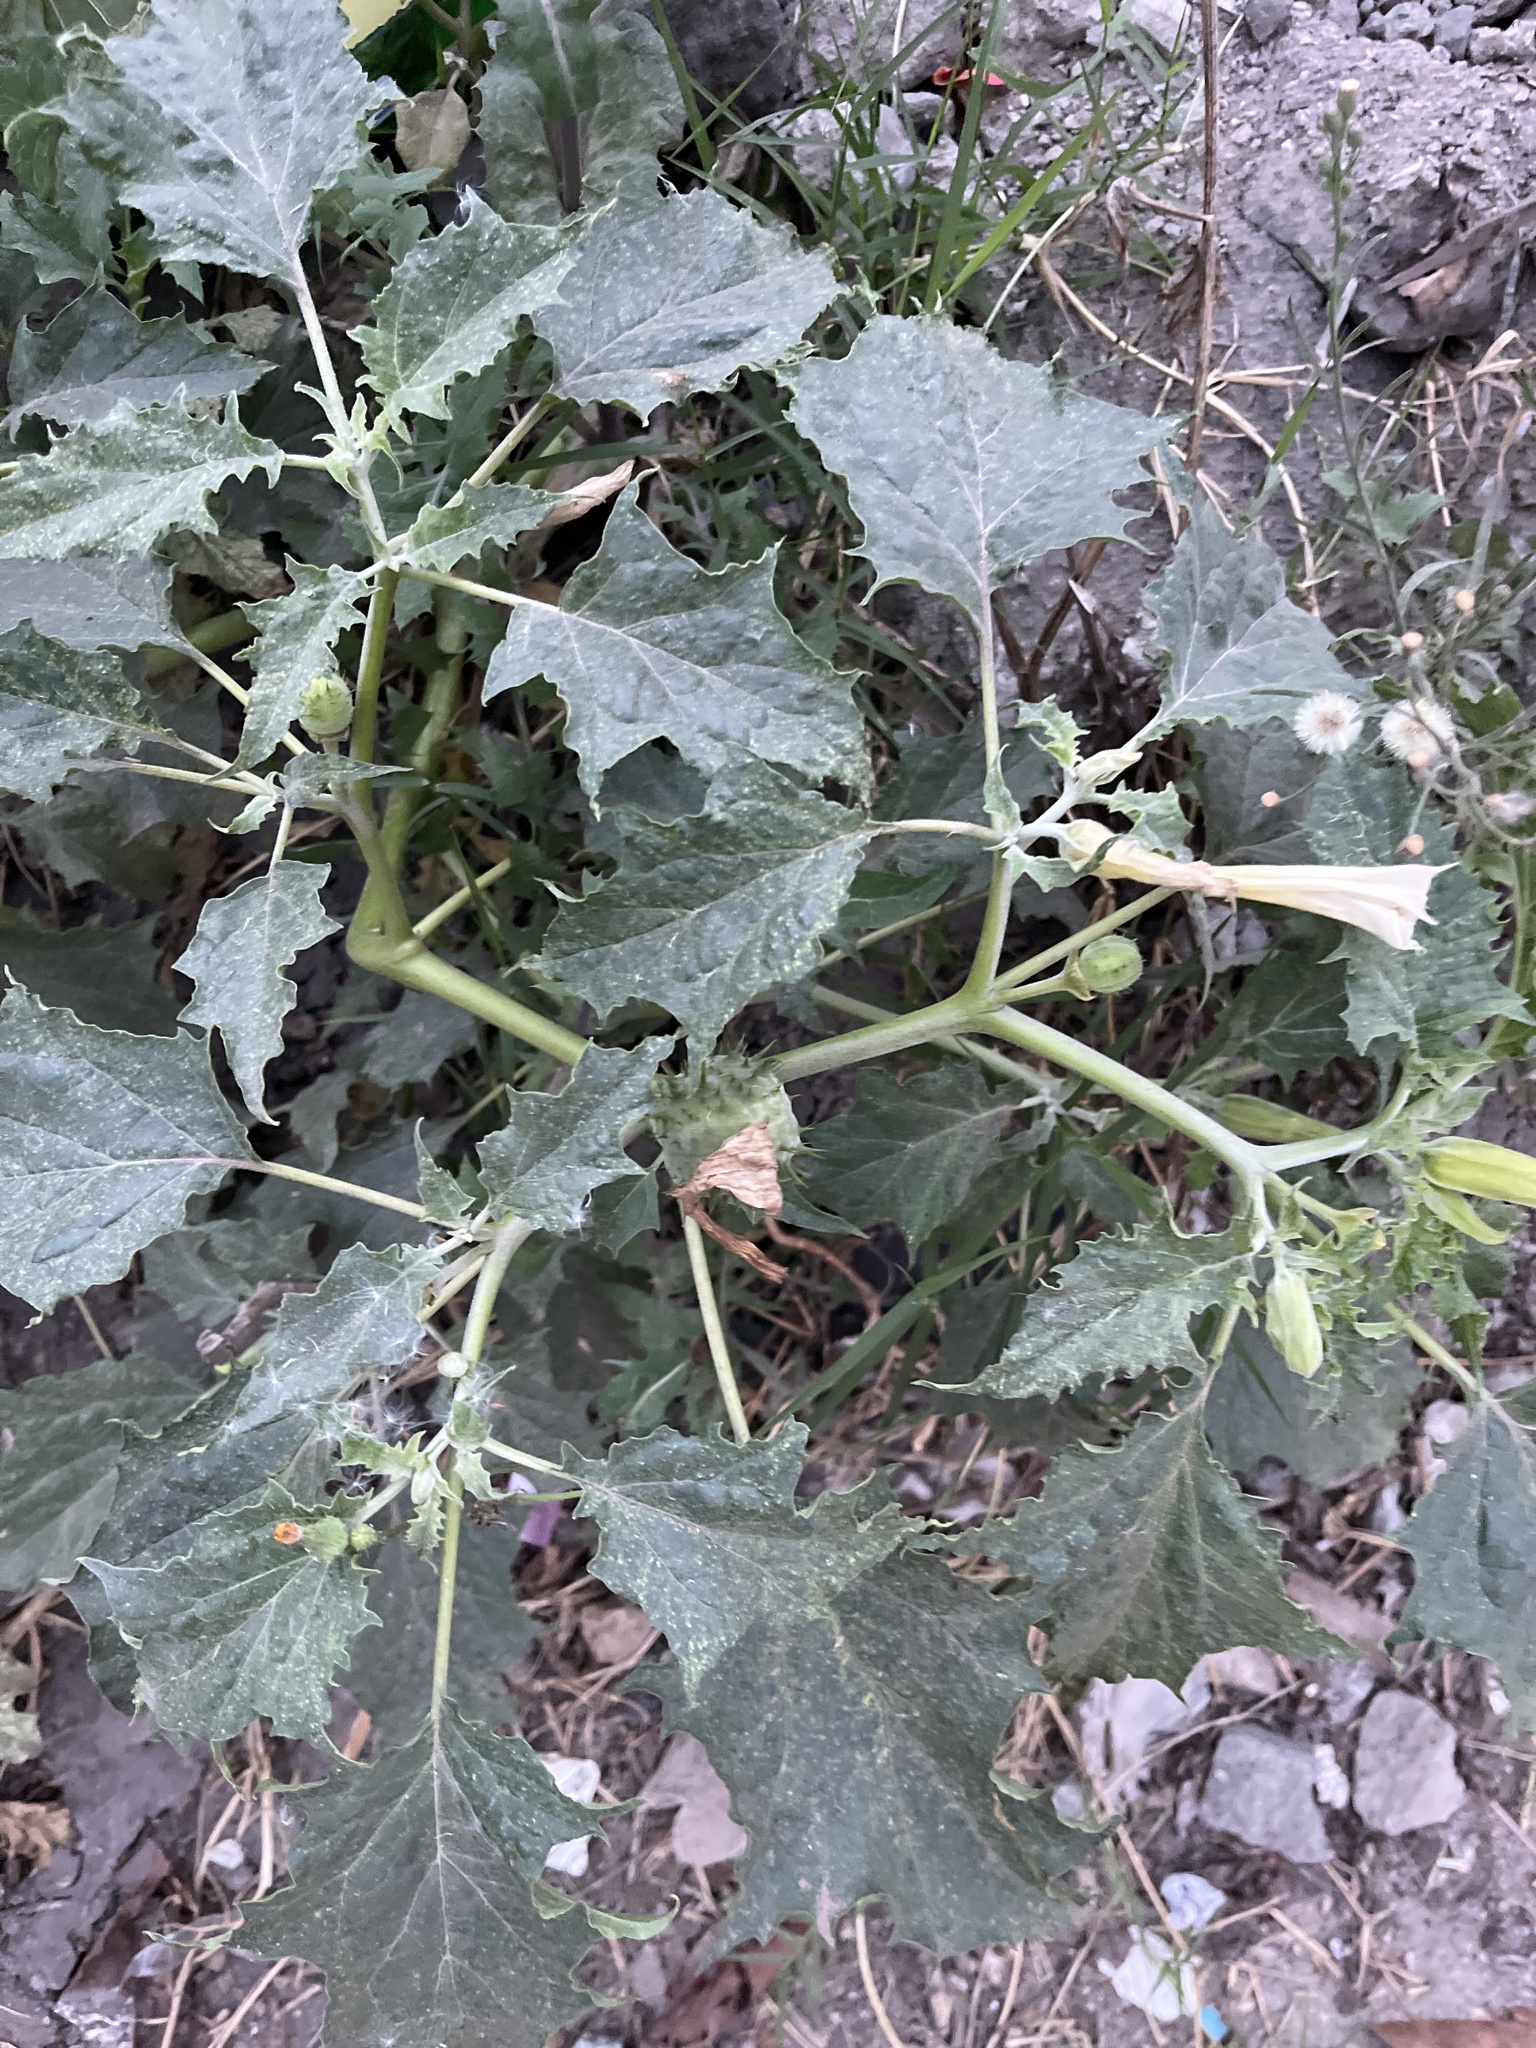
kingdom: Plantae
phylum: Tracheophyta
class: Magnoliopsida
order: Solanales
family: Solanaceae
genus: Datura
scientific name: Datura stramonium
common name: Thorn-apple
